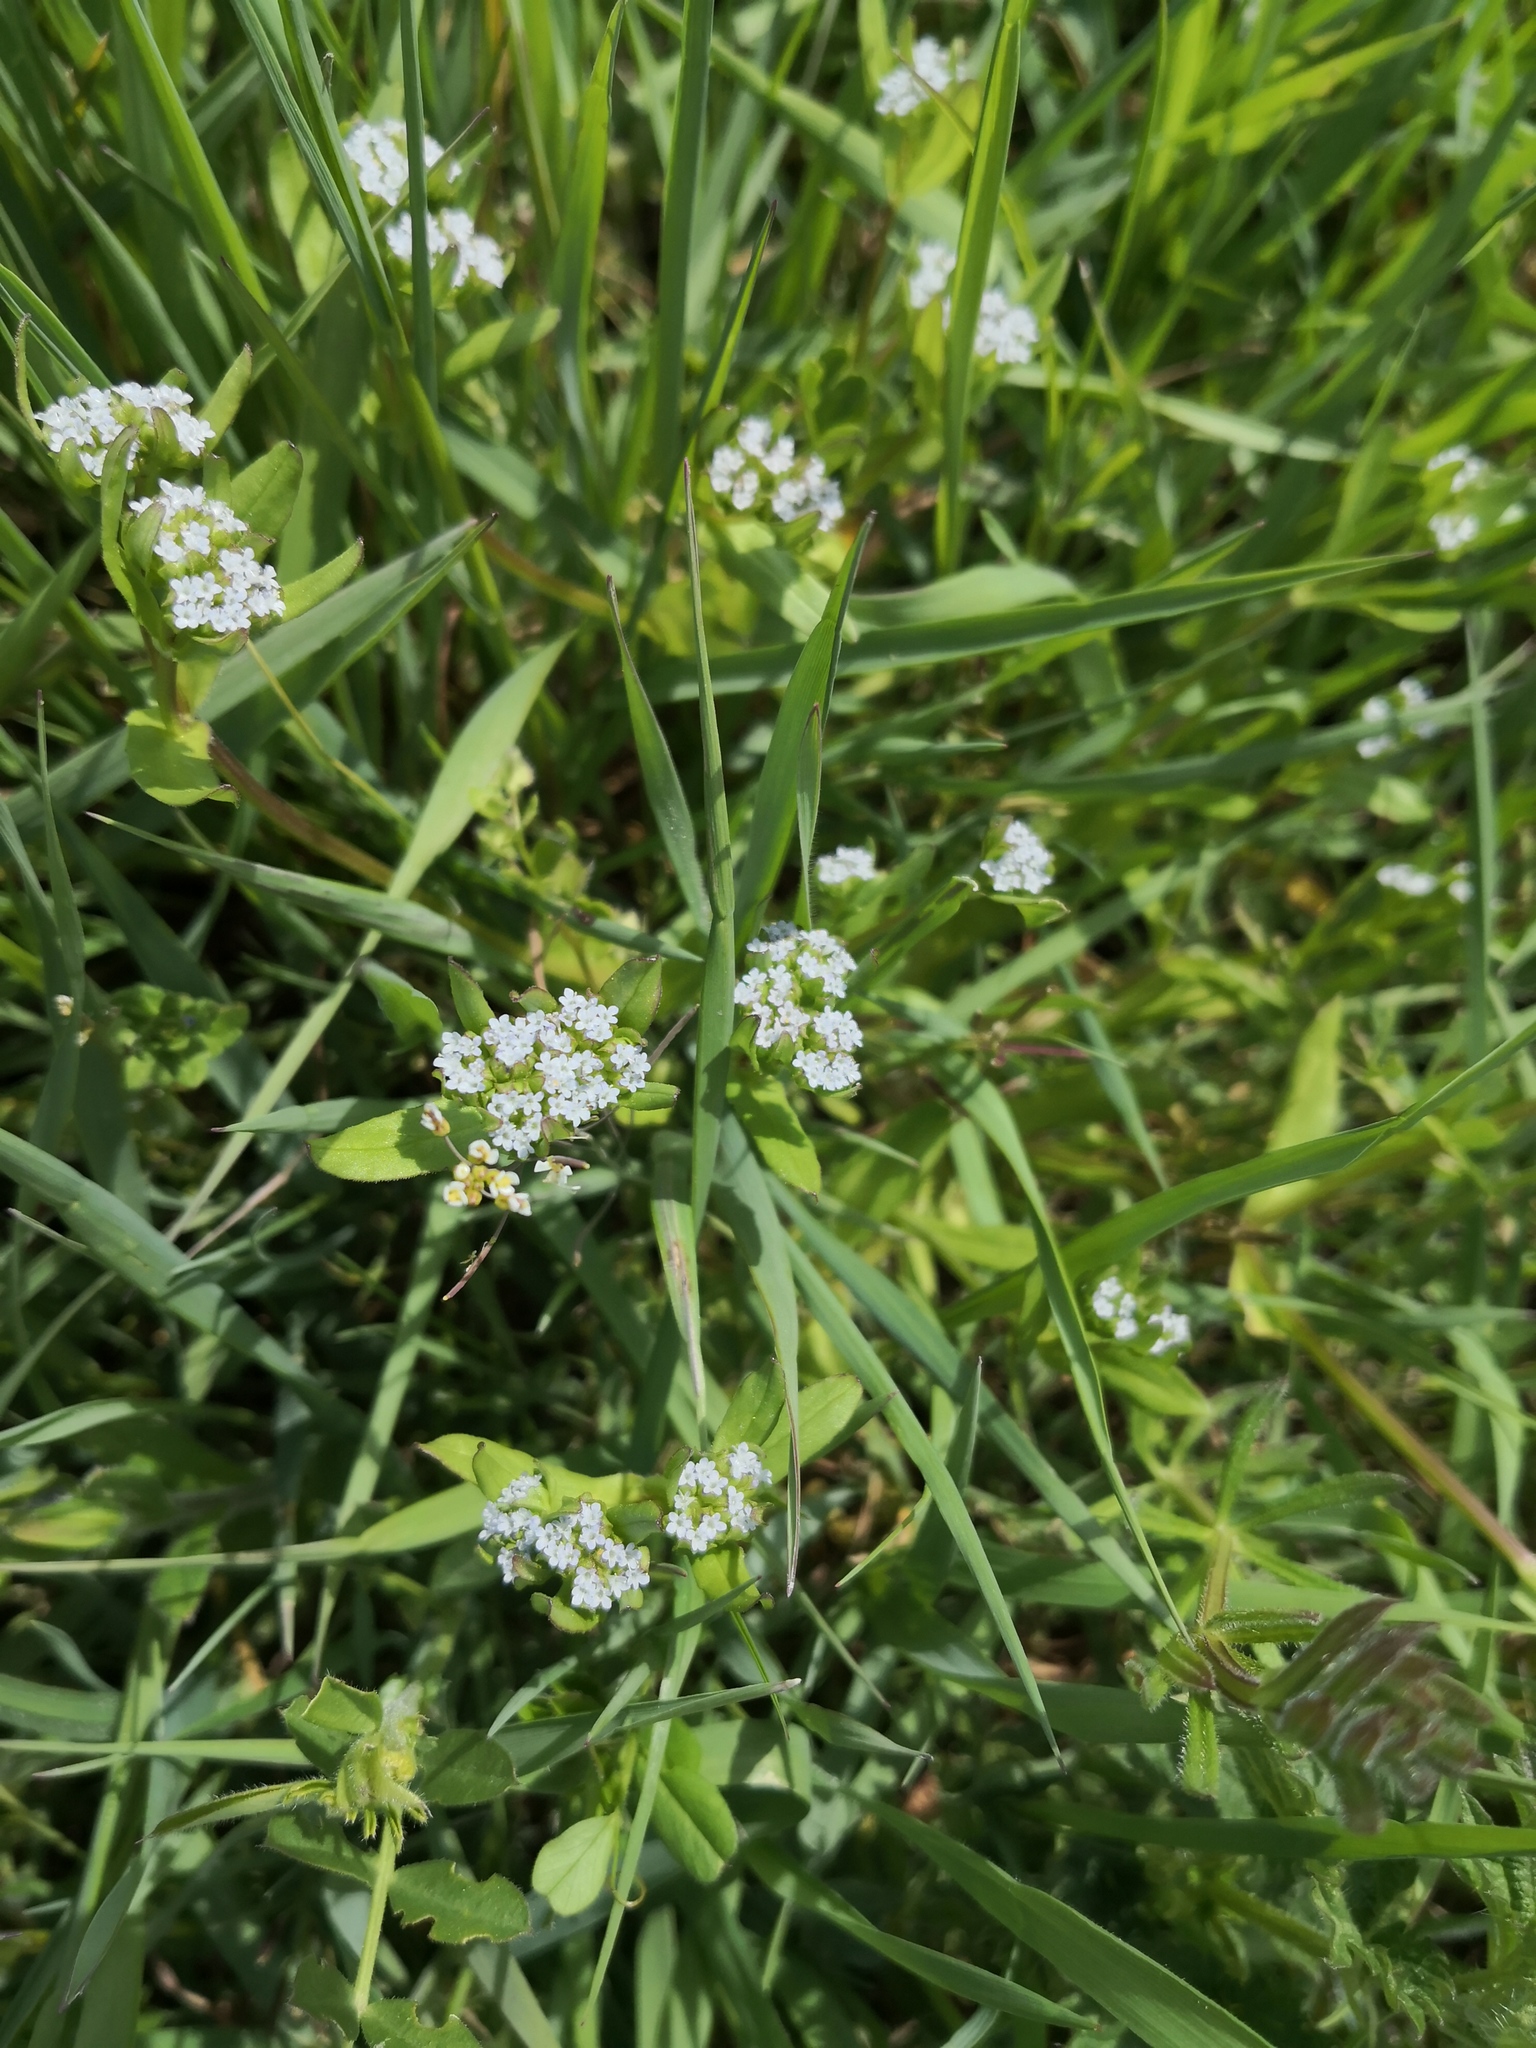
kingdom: Plantae
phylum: Tracheophyta
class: Magnoliopsida
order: Dipsacales
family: Caprifoliaceae
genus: Valerianella
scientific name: Valerianella locusta
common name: Common cornsalad
